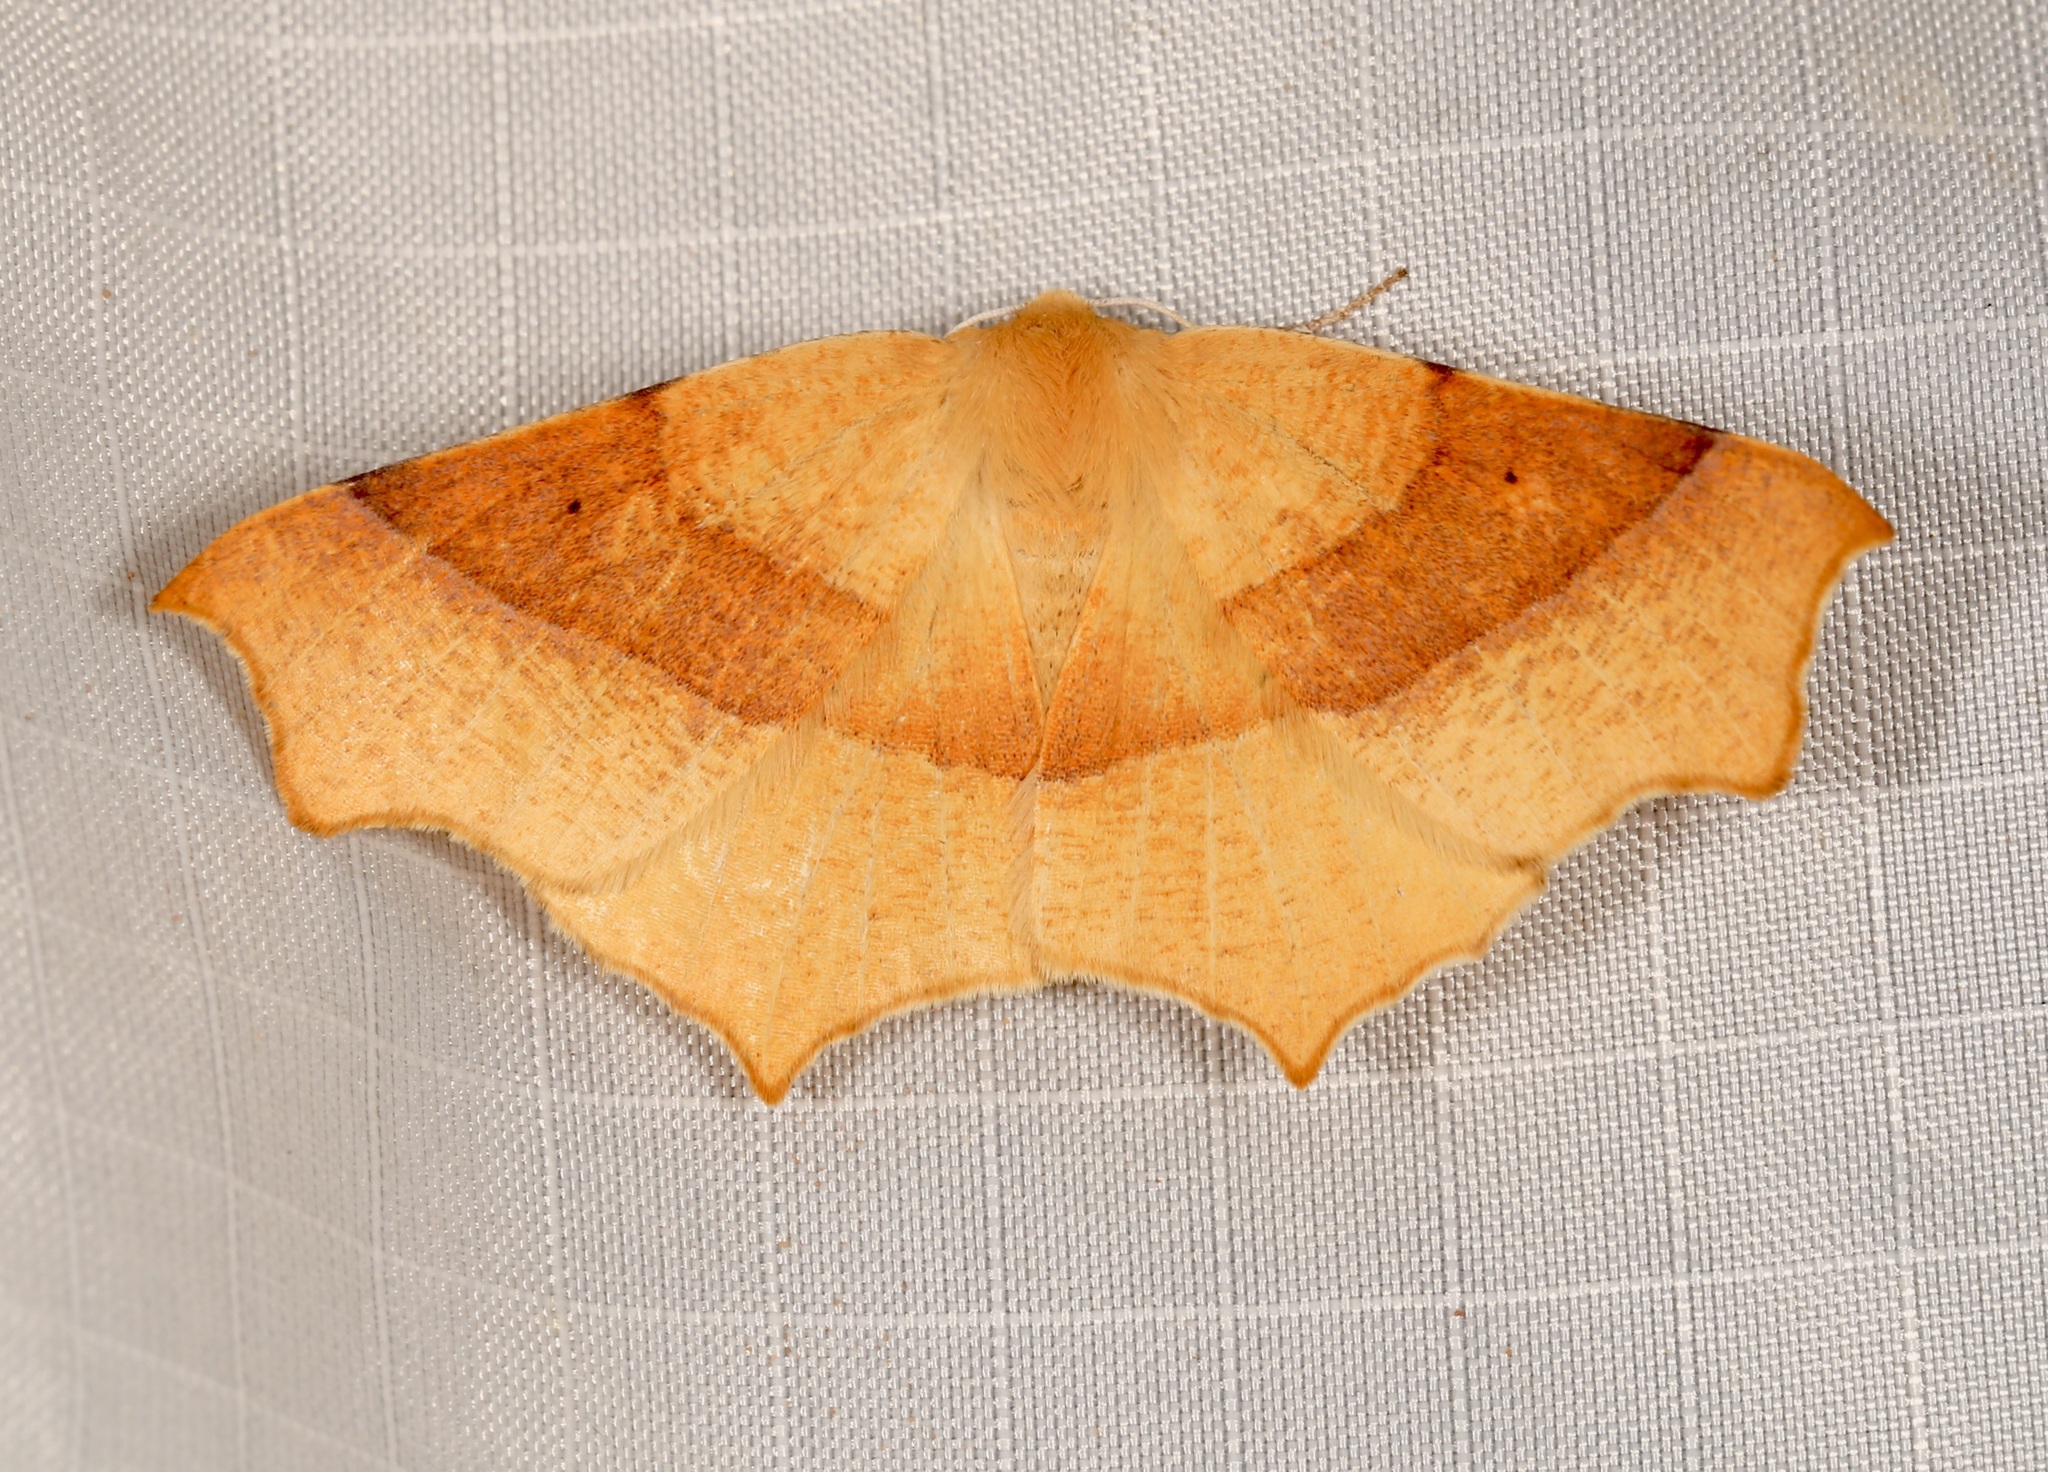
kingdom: Animalia
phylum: Arthropoda
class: Insecta
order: Lepidoptera
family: Geometridae
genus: Tetracis
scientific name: Tetracis cervinaria
